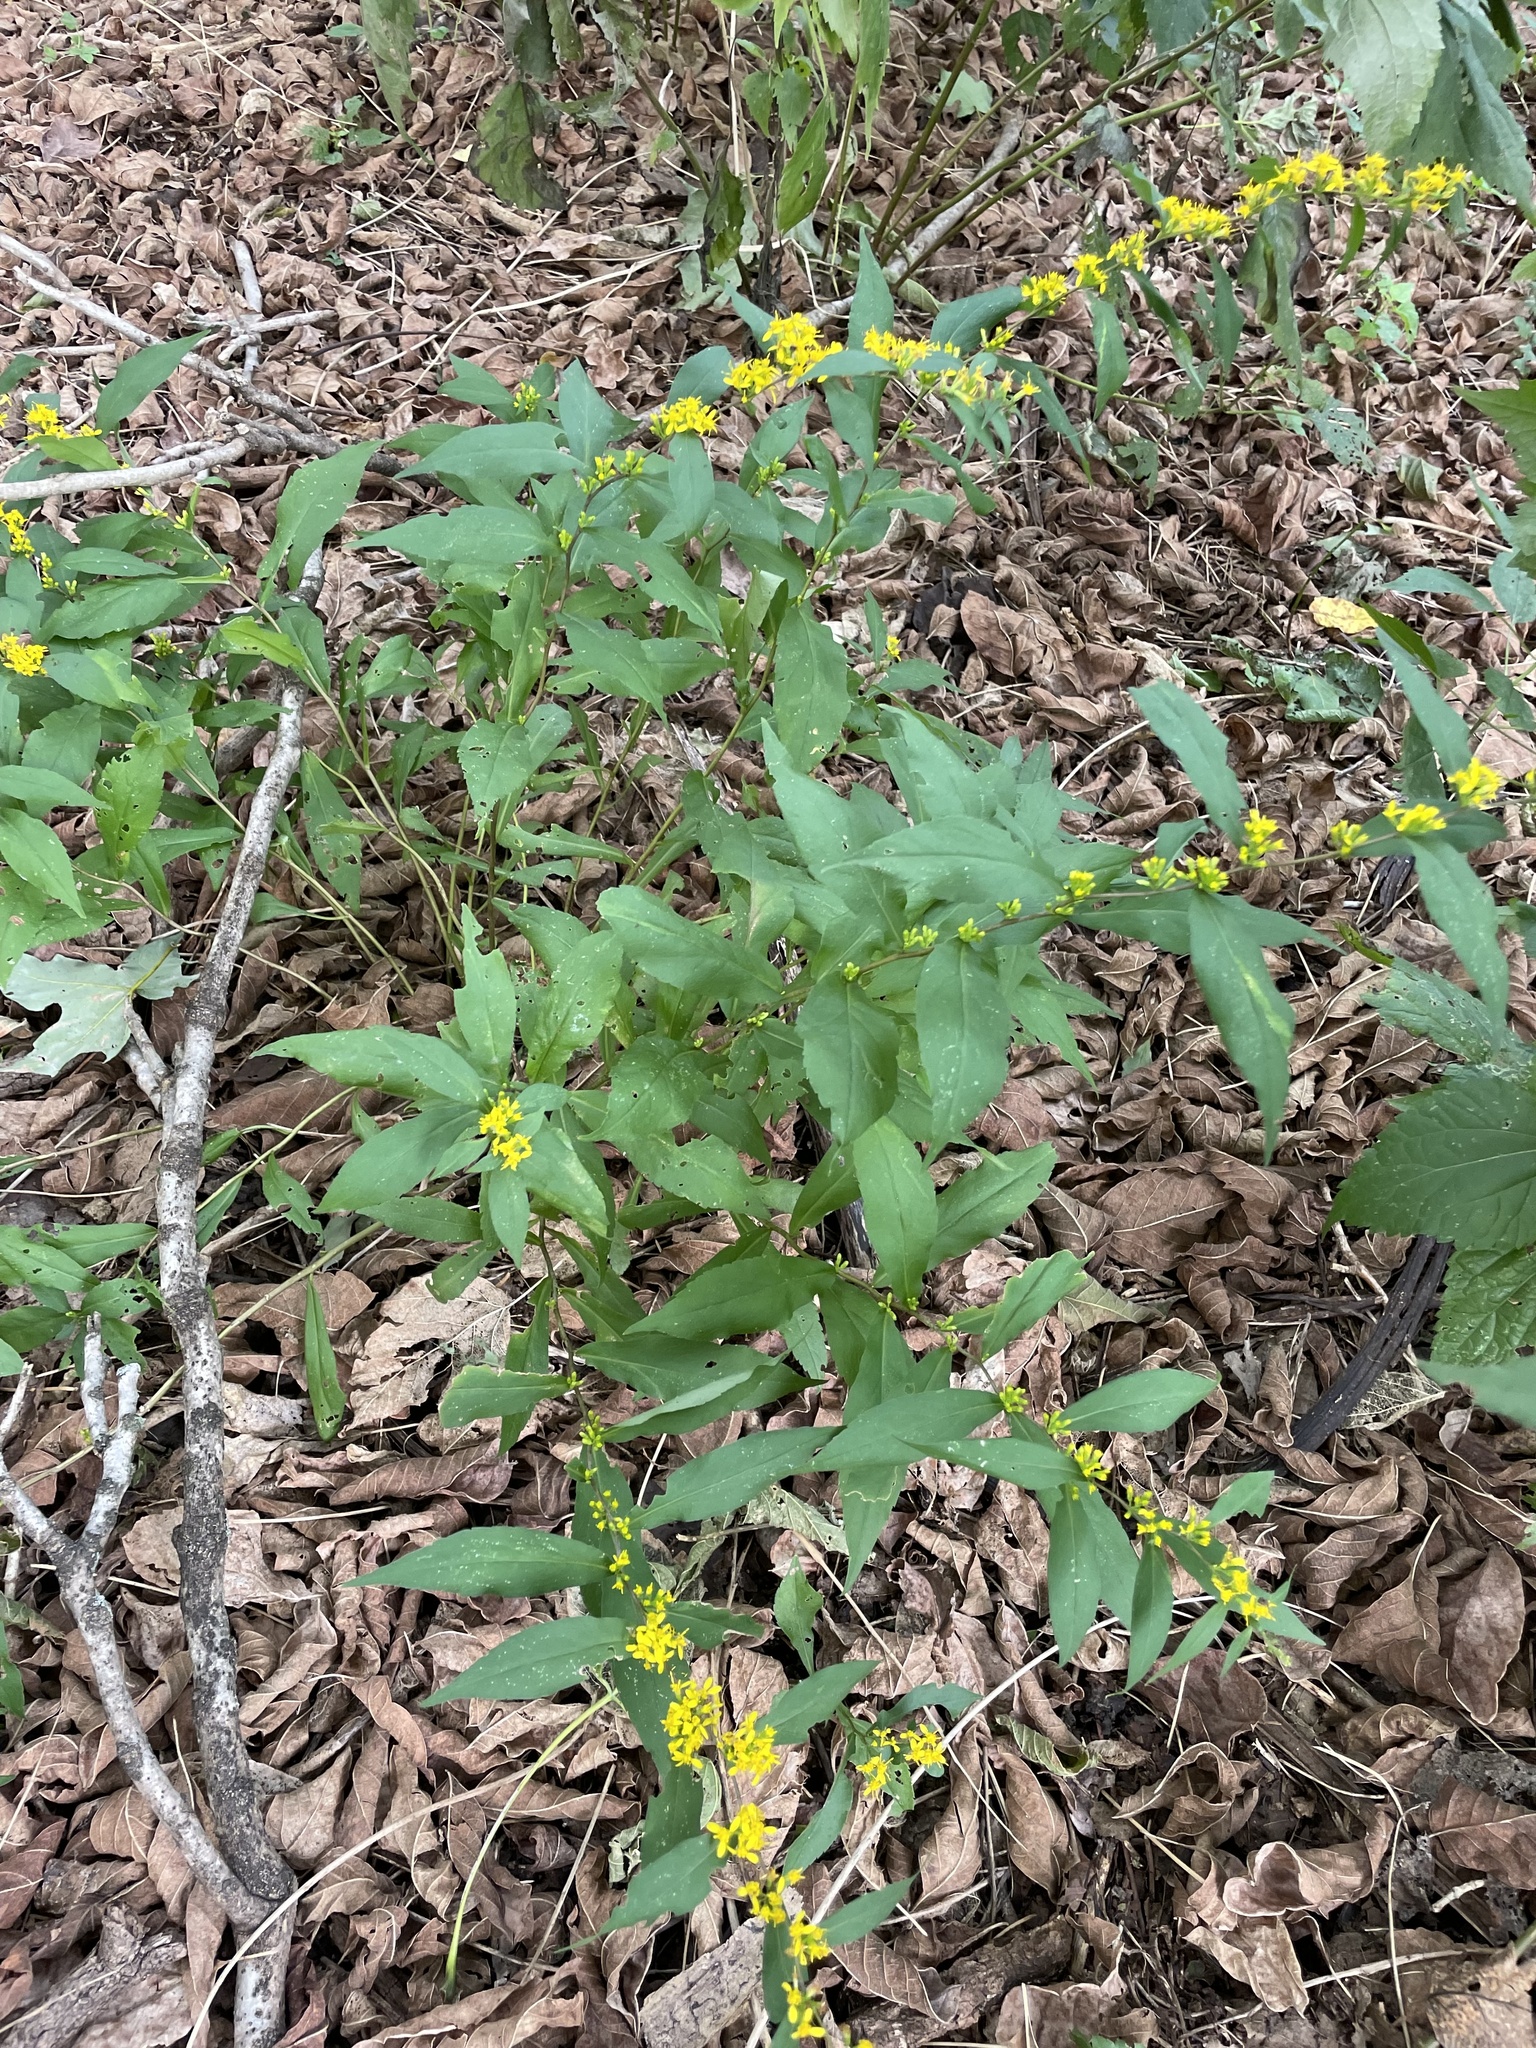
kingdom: Plantae
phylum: Tracheophyta
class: Magnoliopsida
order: Asterales
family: Asteraceae
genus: Solidago
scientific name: Solidago caesia
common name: Woodland goldenrod
